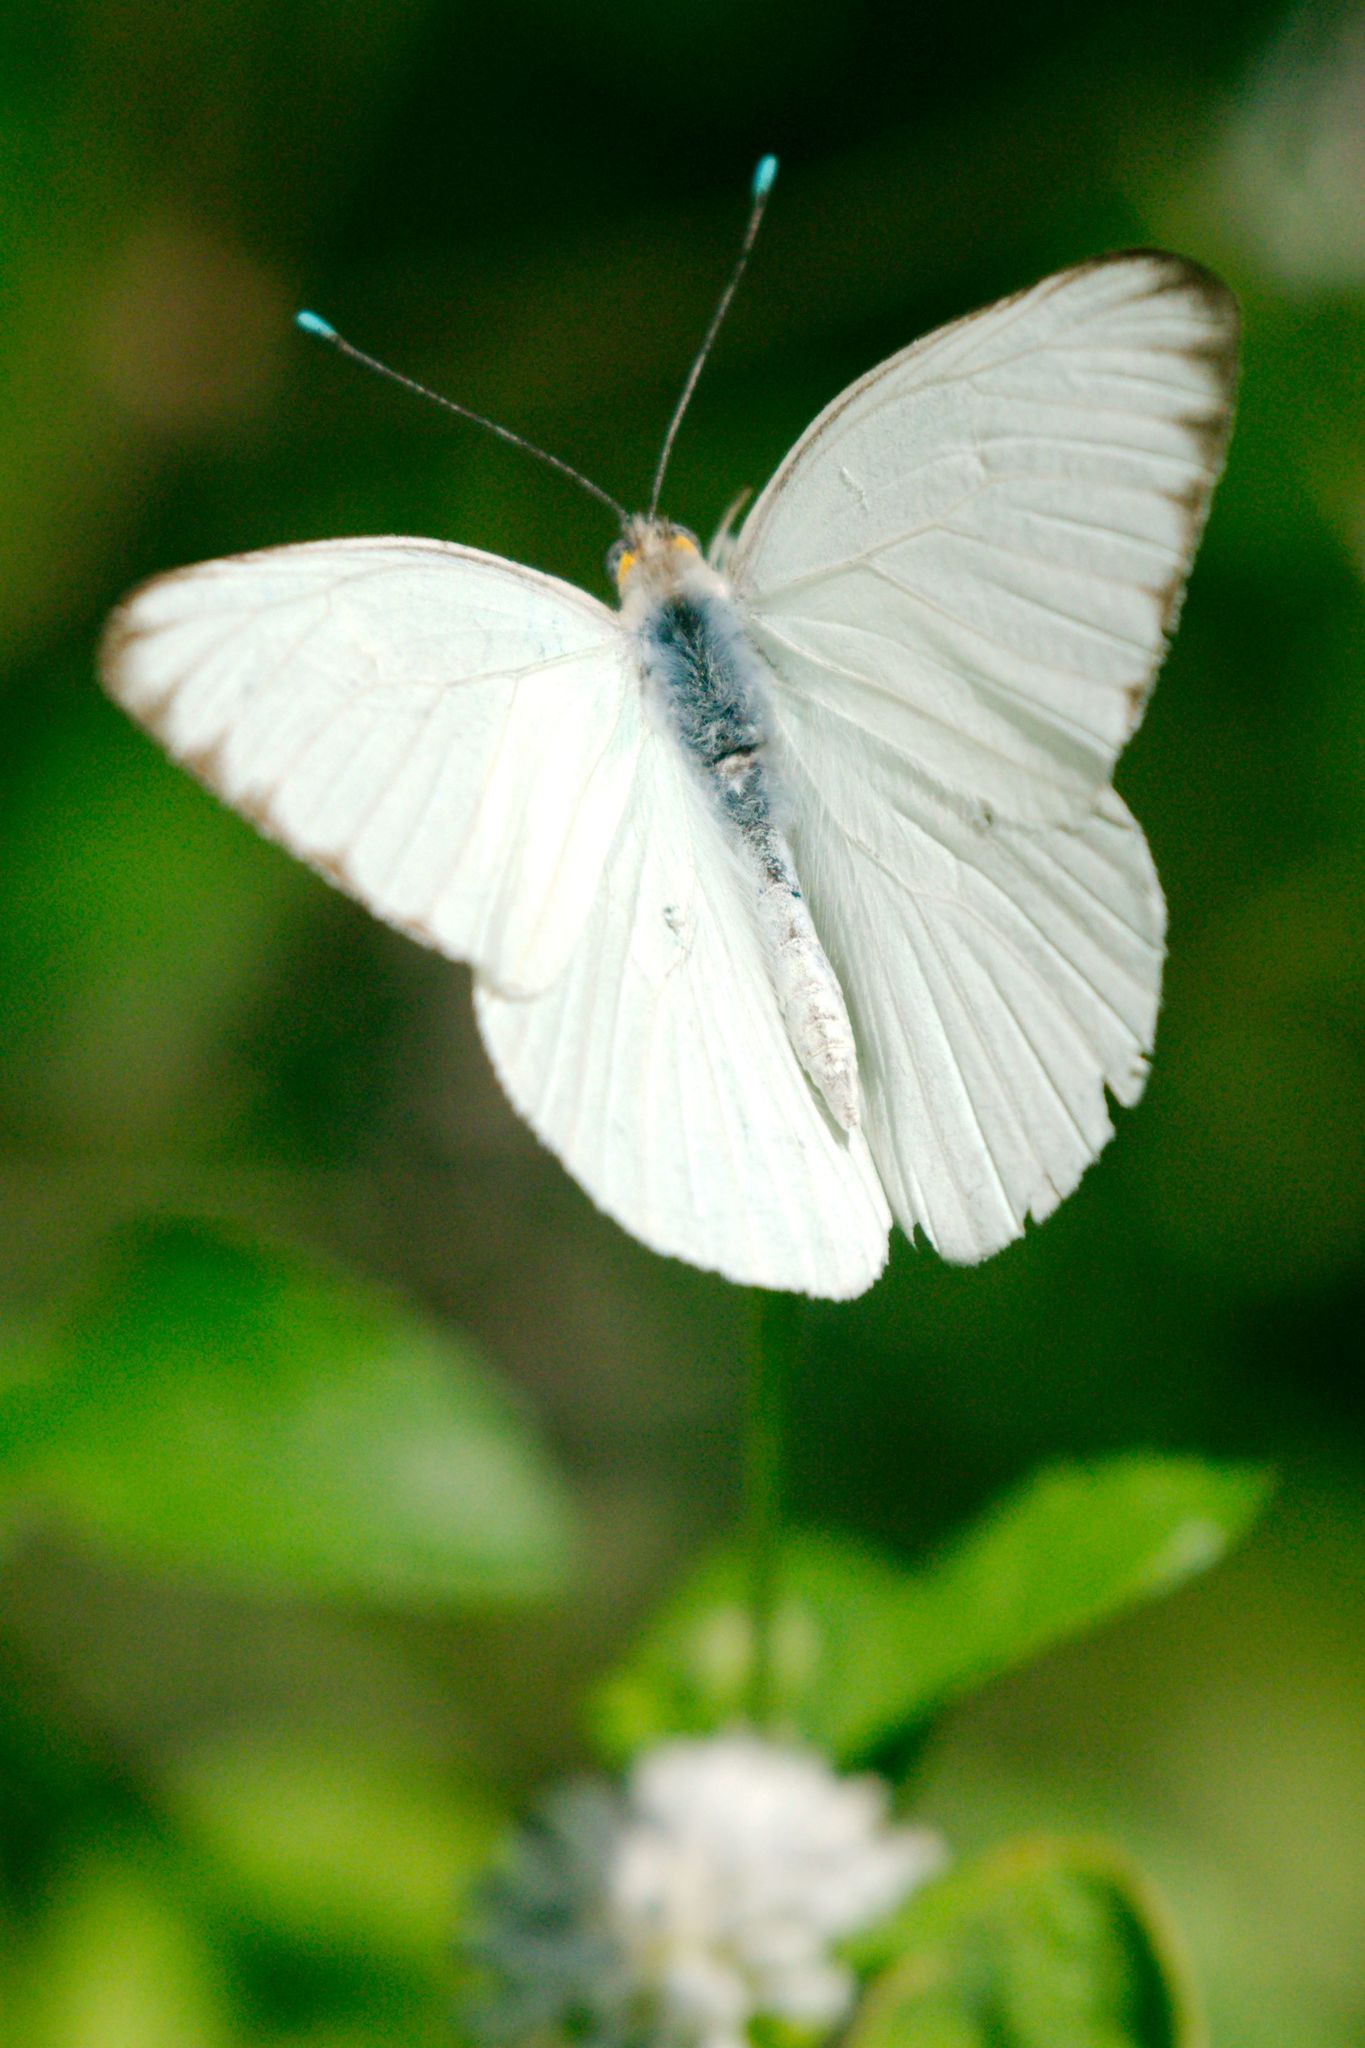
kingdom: Animalia
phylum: Arthropoda
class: Insecta
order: Lepidoptera
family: Pieridae
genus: Ascia
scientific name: Ascia monuste
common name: Great southern white
